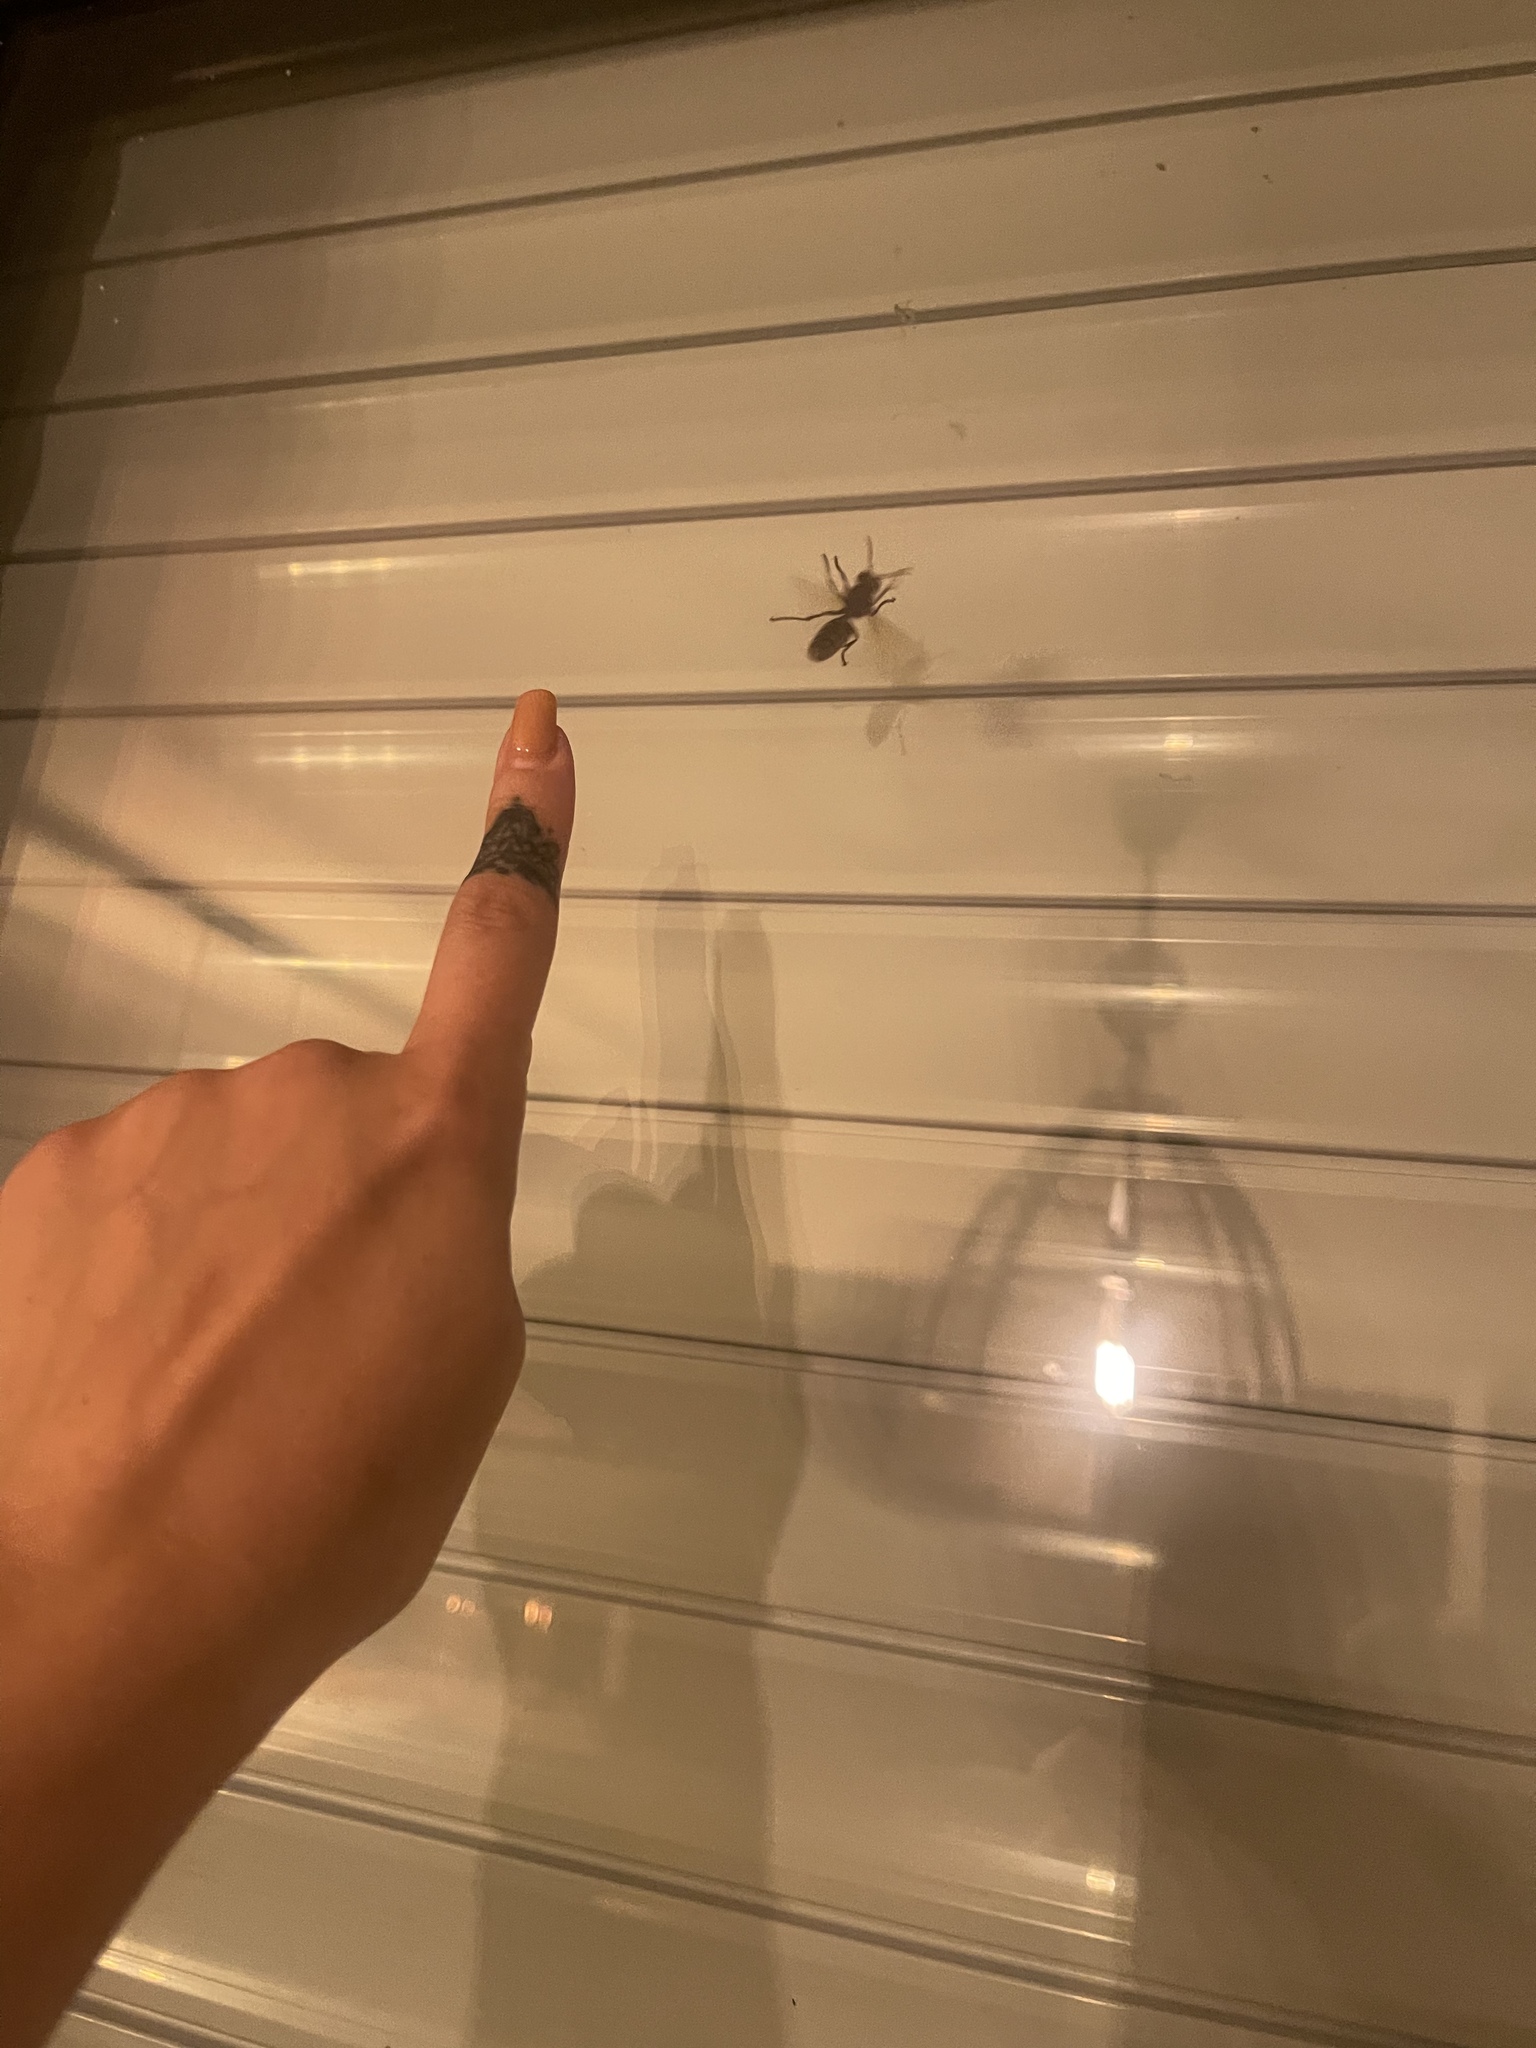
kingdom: Animalia
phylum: Arthropoda
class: Insecta
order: Hymenoptera
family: Vespidae
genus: Vespa
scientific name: Vespa crabro
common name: Hornet
